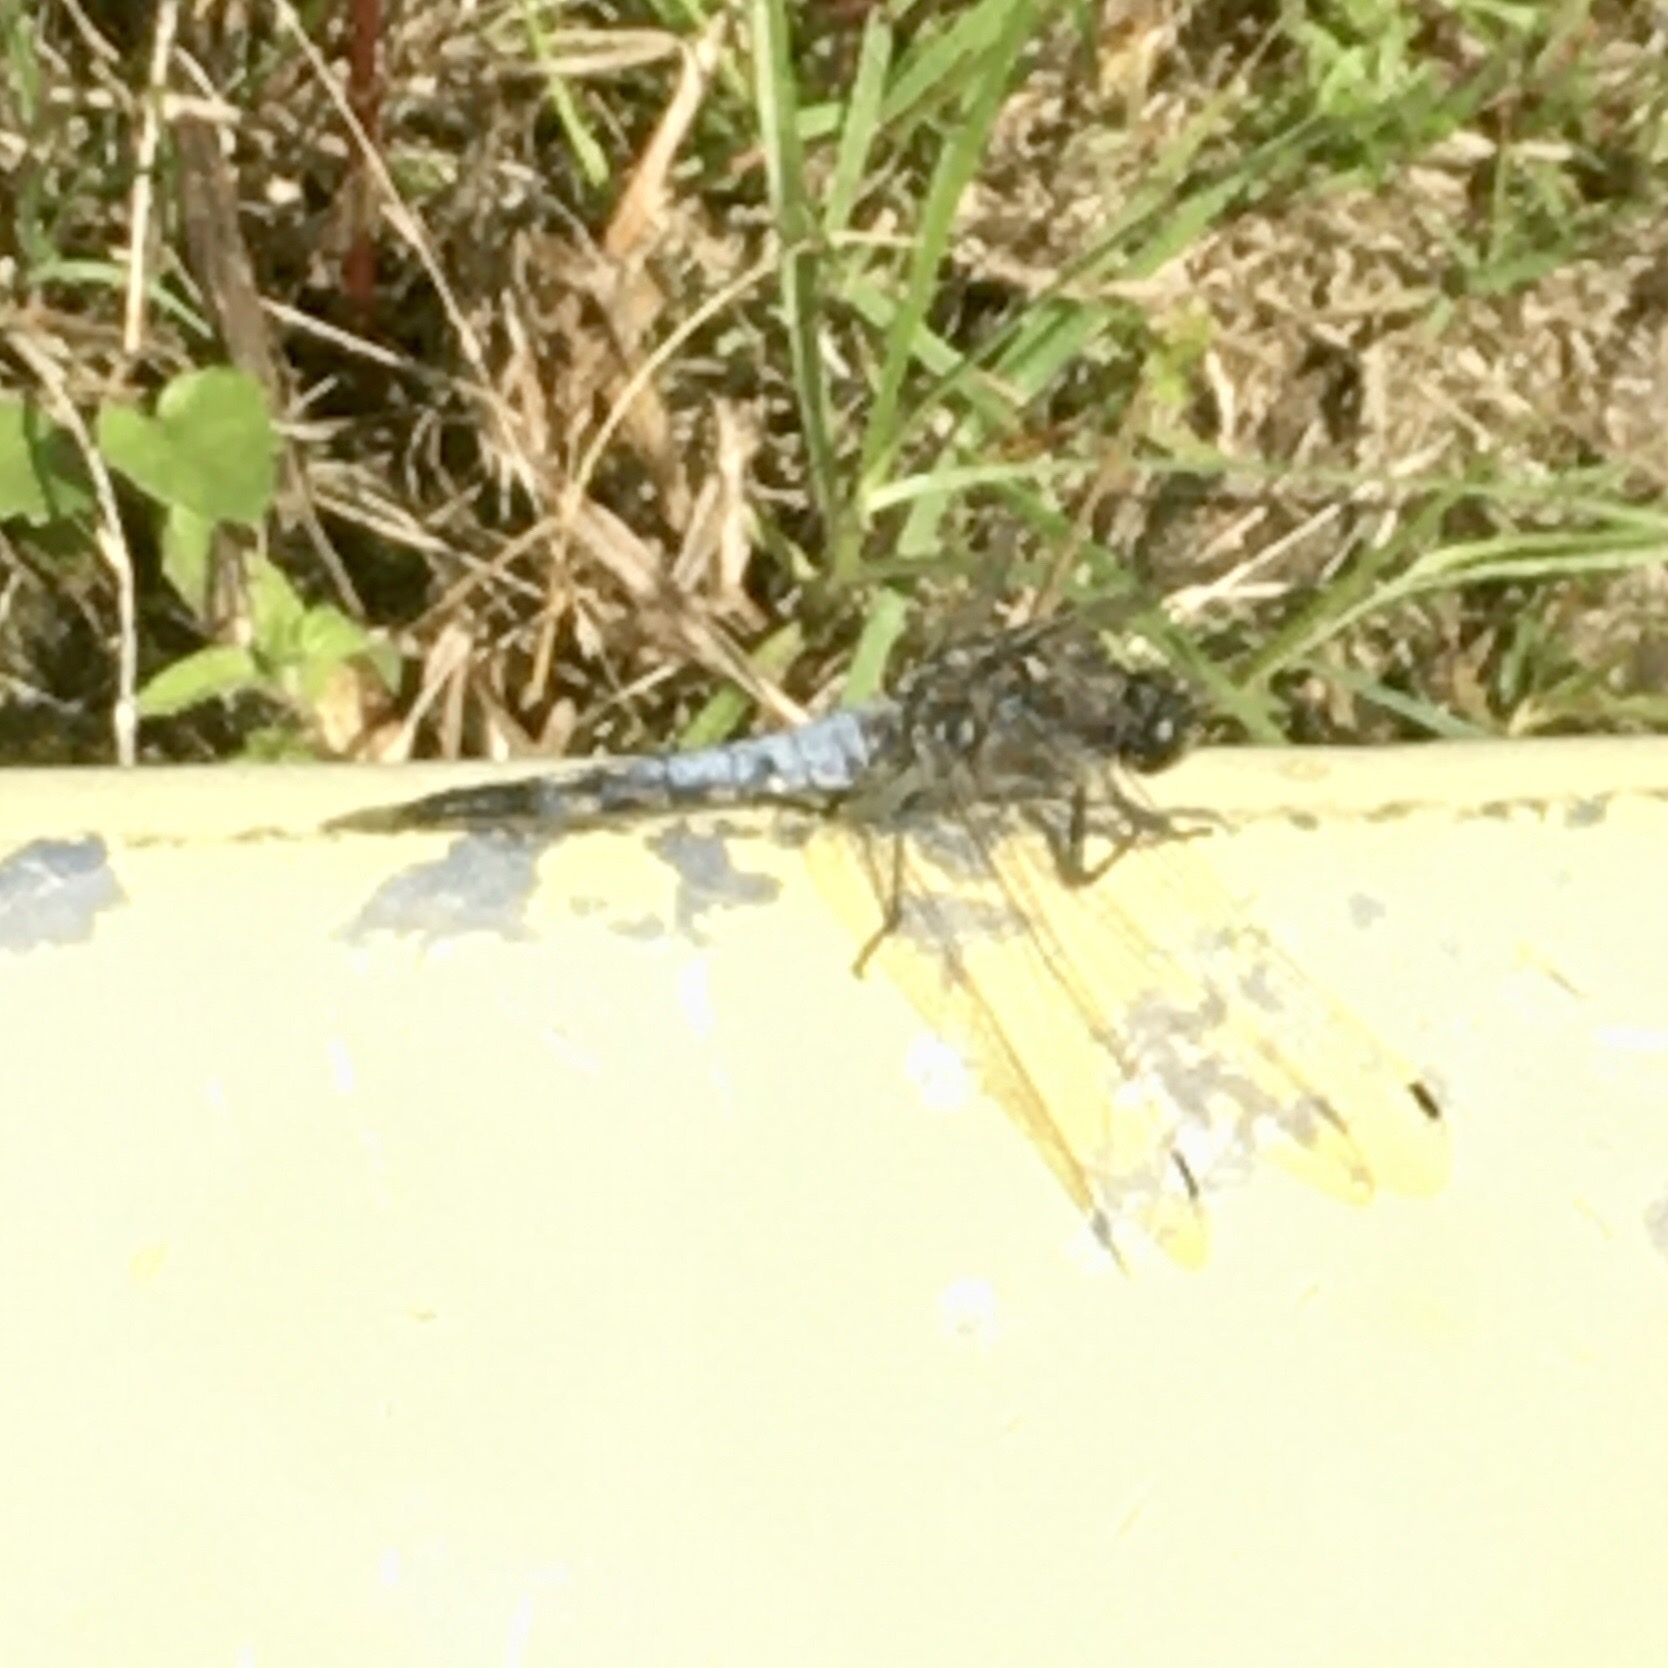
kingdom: Animalia
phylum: Arthropoda
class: Insecta
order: Odonata
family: Libellulidae
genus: Orthetrum
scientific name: Orthetrum cancellatum
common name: Black-tailed skimmer
